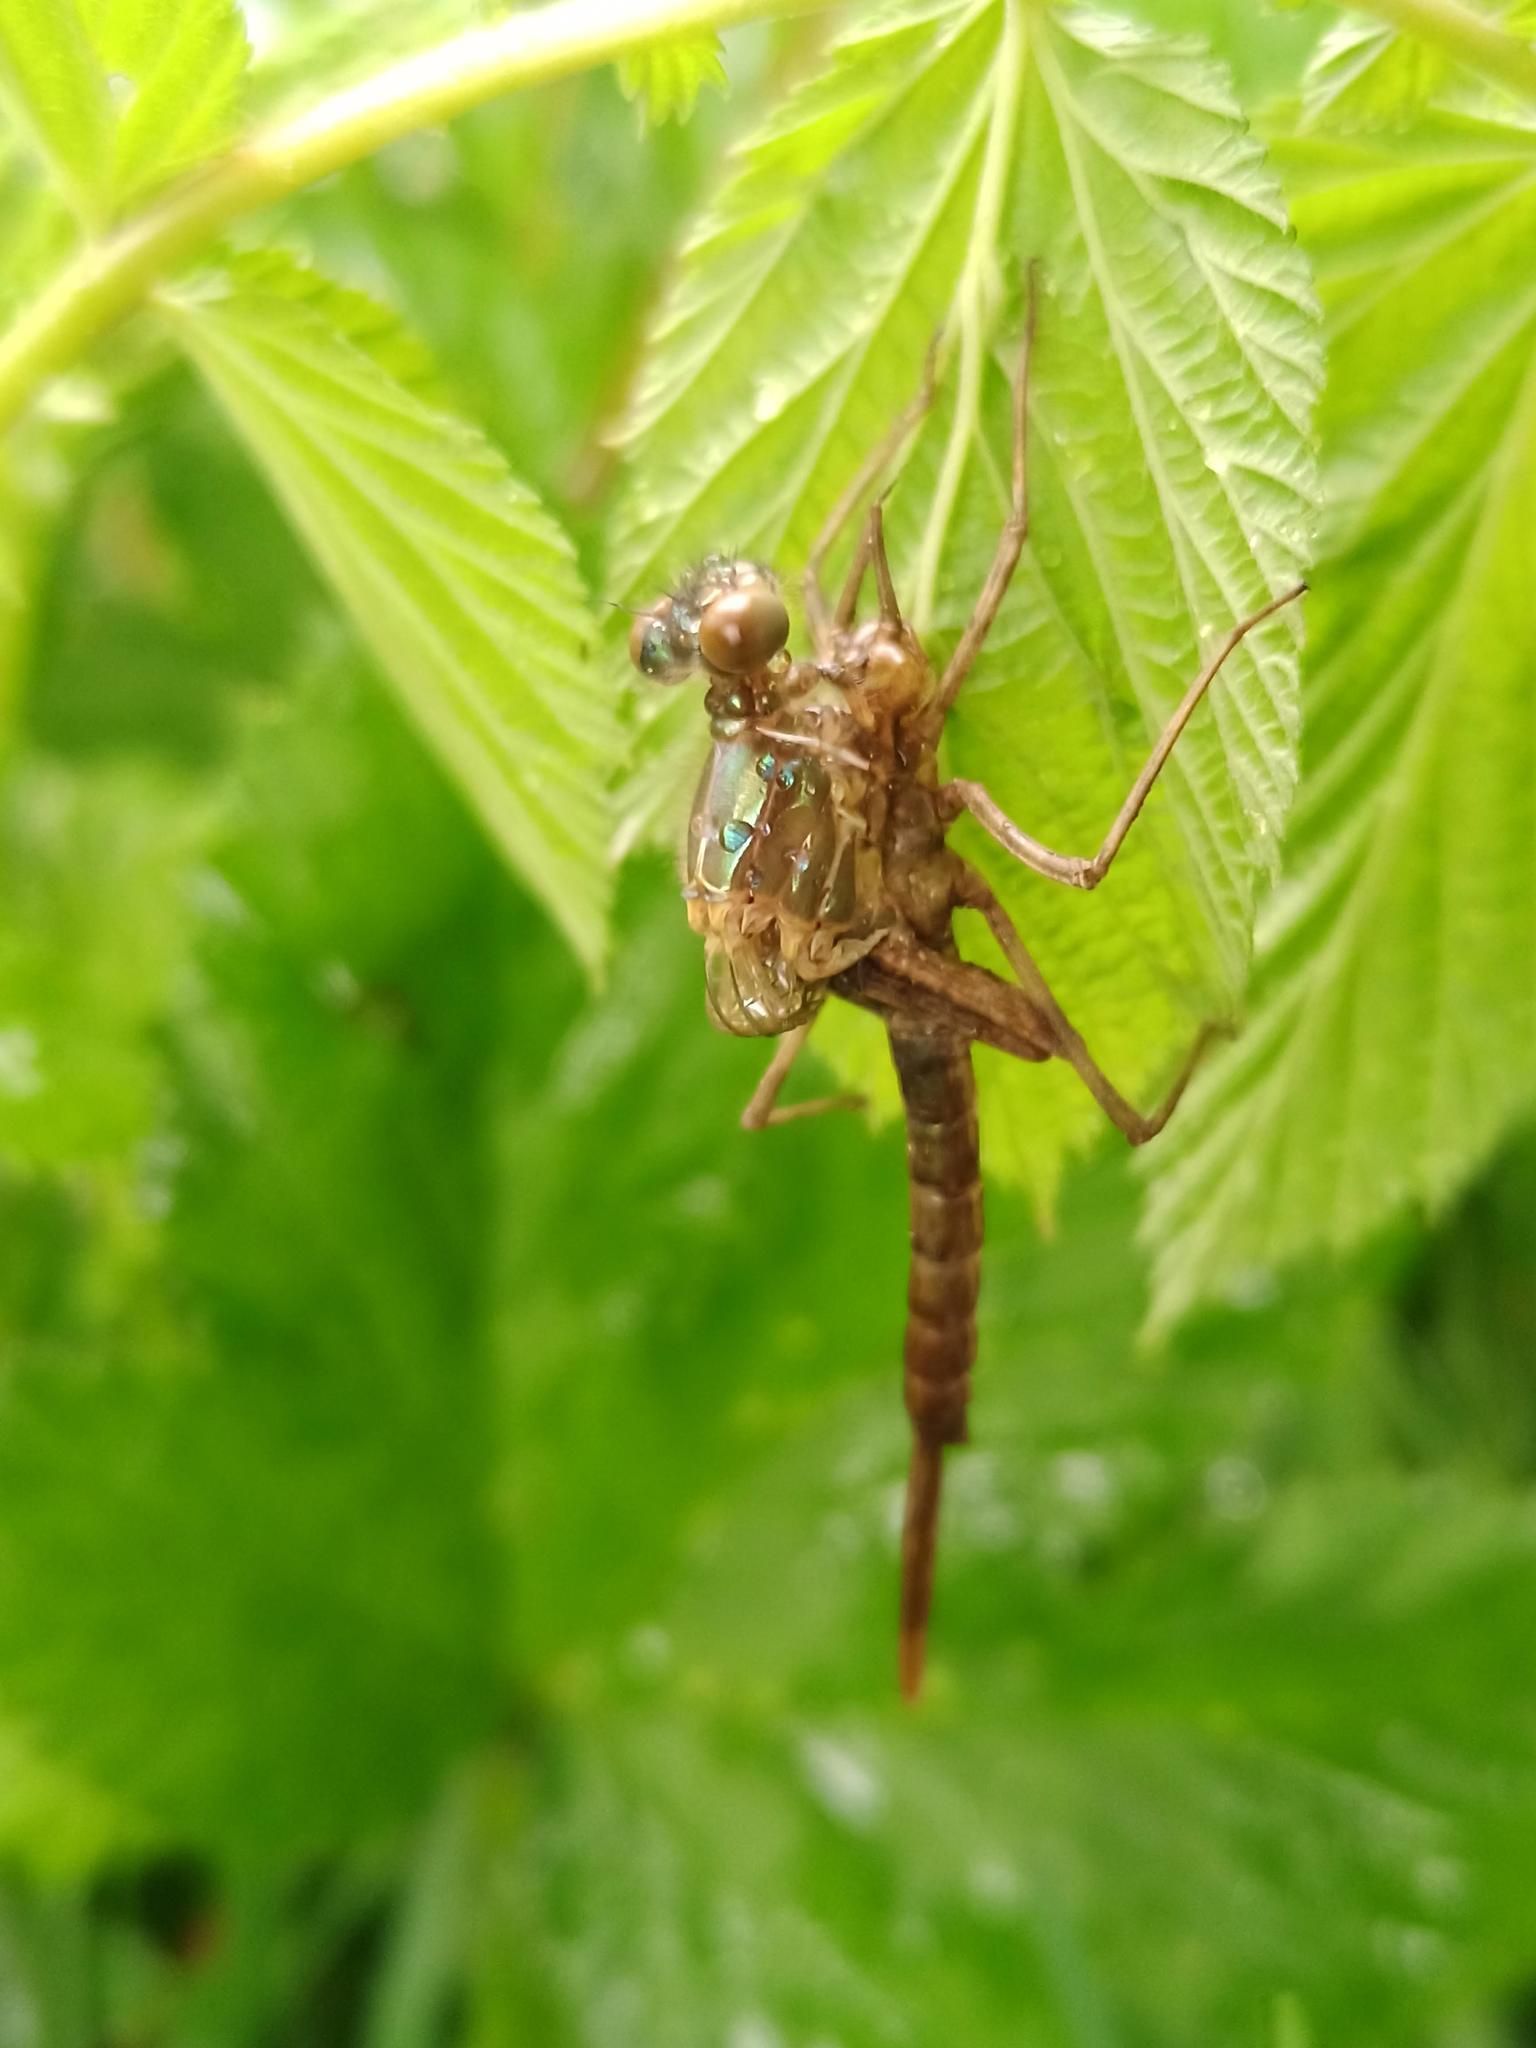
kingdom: Animalia
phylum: Arthropoda
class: Insecta
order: Odonata
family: Calopterygidae
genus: Calopteryx
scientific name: Calopteryx
